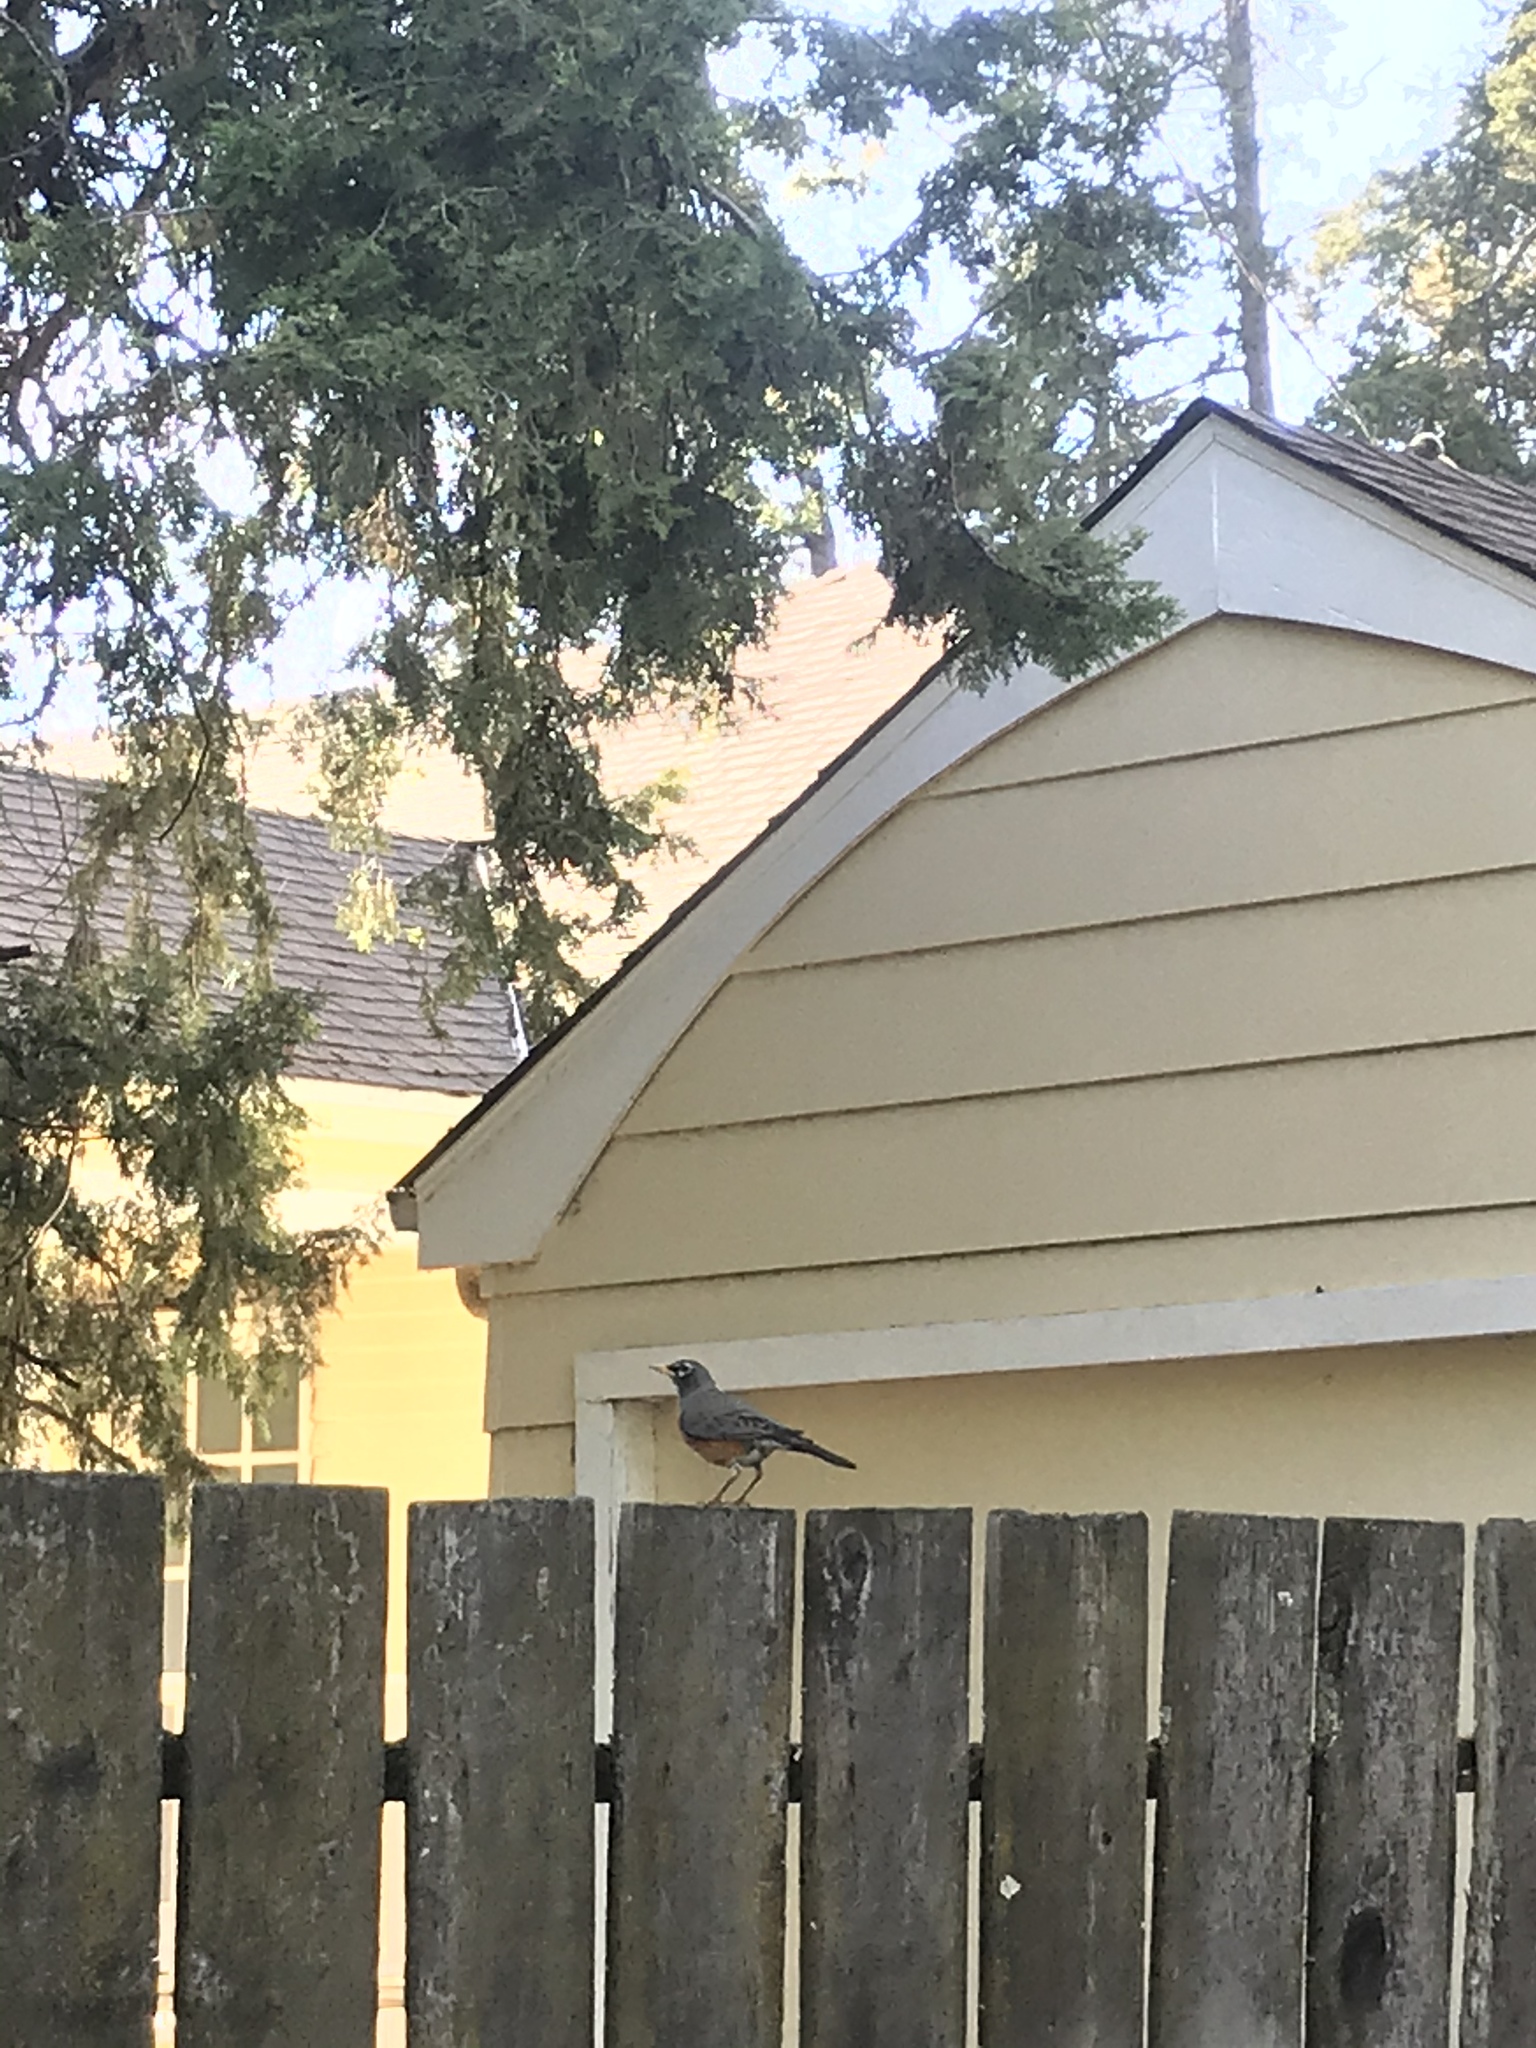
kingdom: Animalia
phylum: Chordata
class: Aves
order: Passeriformes
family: Turdidae
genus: Turdus
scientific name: Turdus migratorius
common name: American robin
